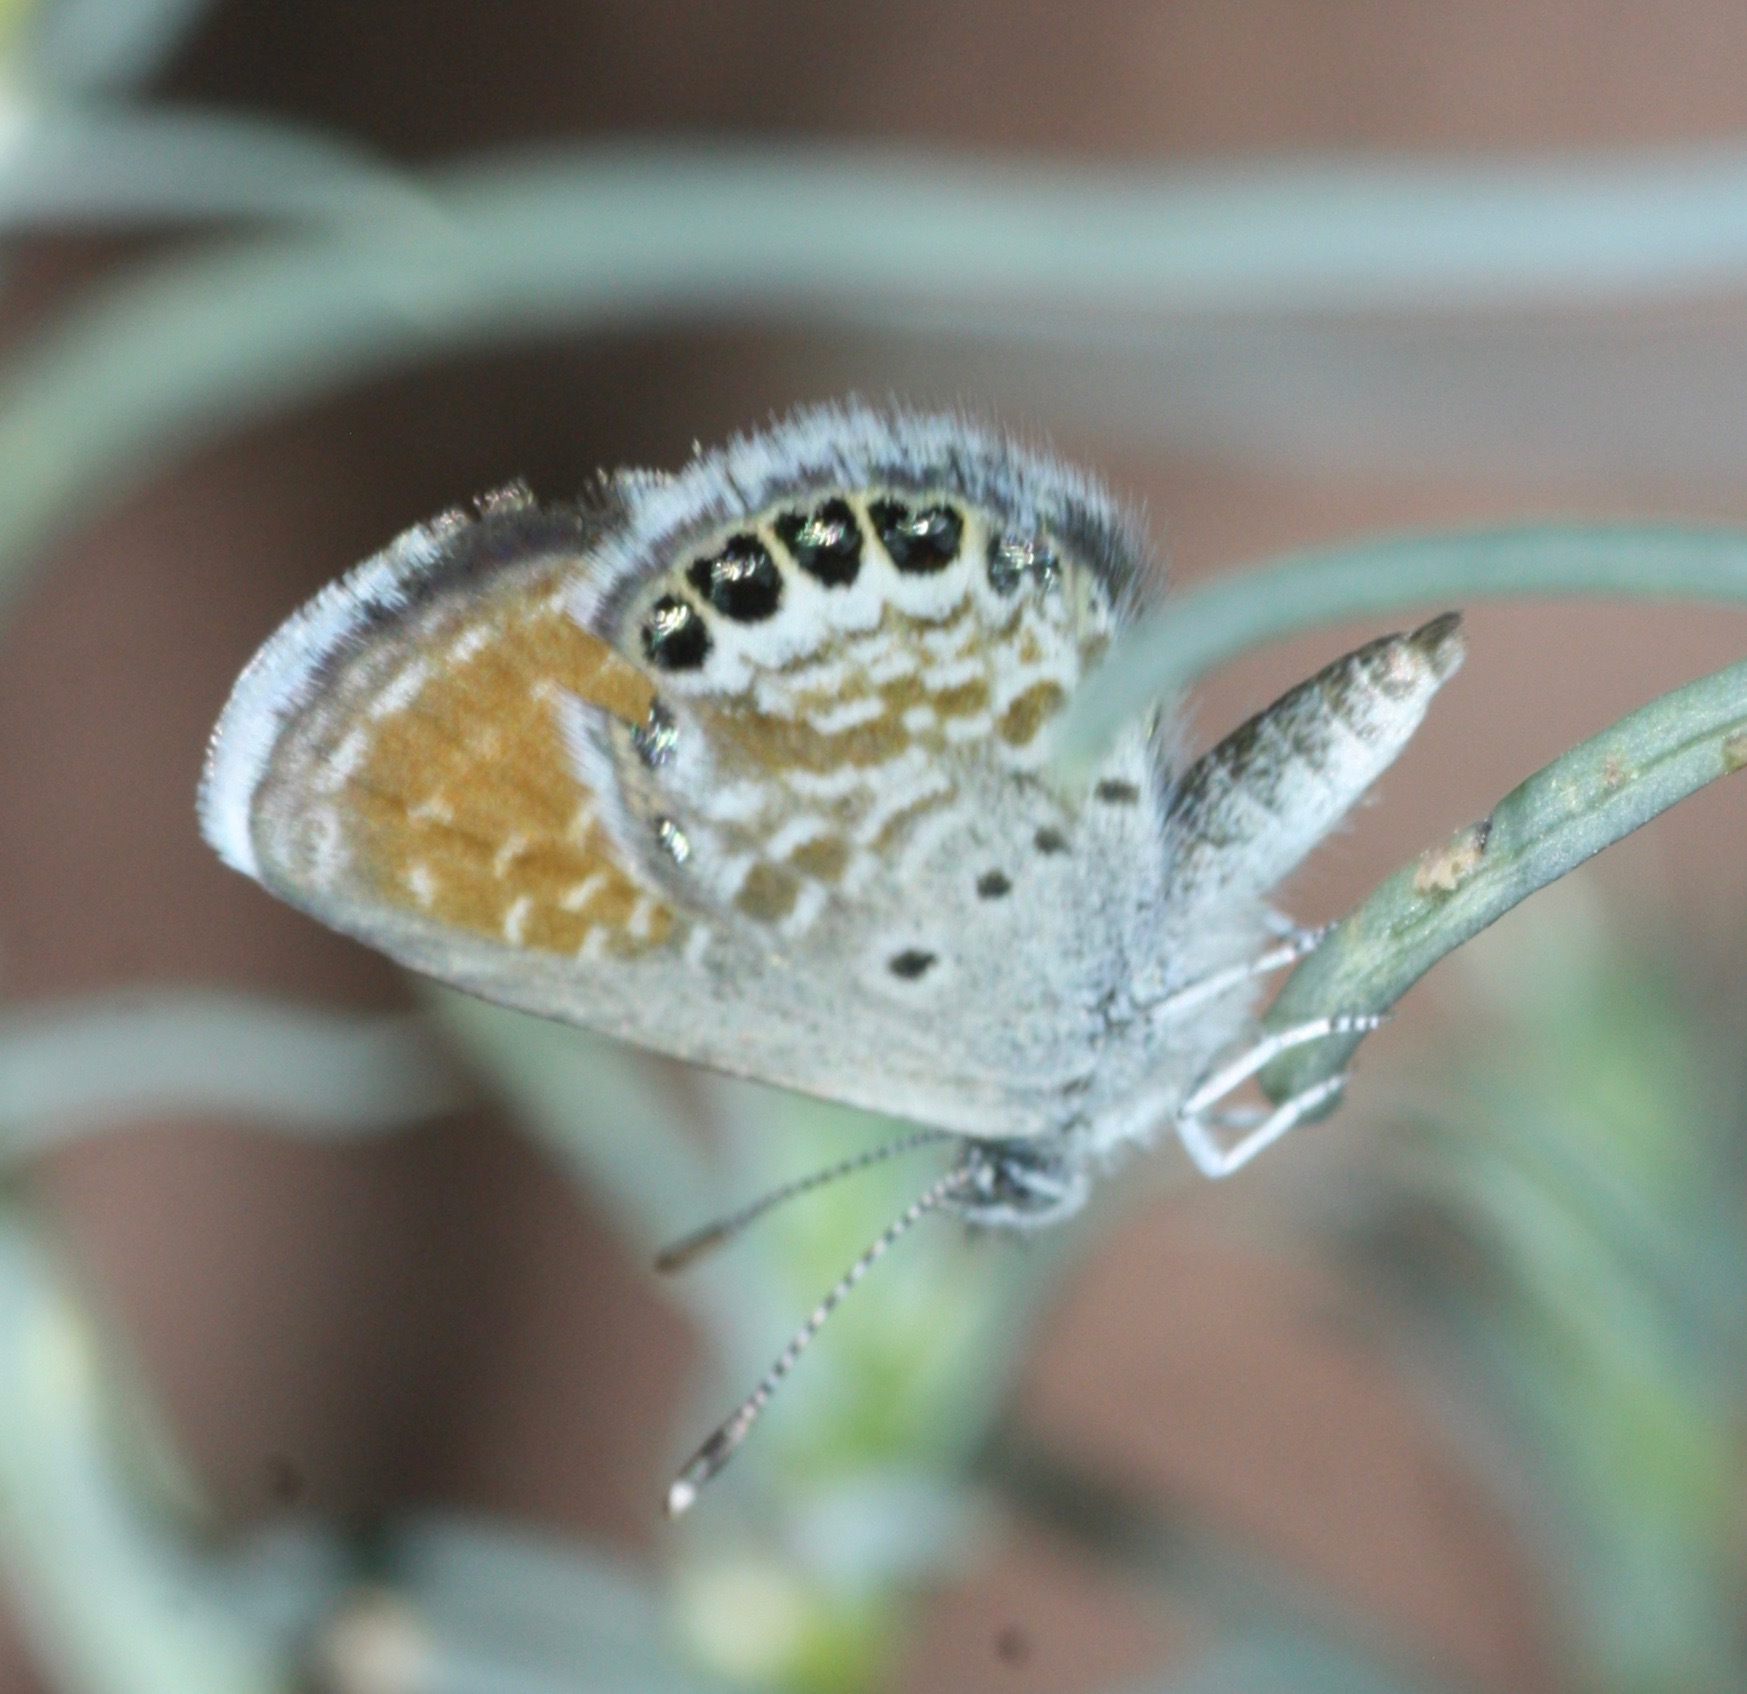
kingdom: Animalia
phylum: Arthropoda
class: Insecta
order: Lepidoptera
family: Lycaenidae
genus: Brephidium
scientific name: Brephidium exilis
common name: Pygmy blue
